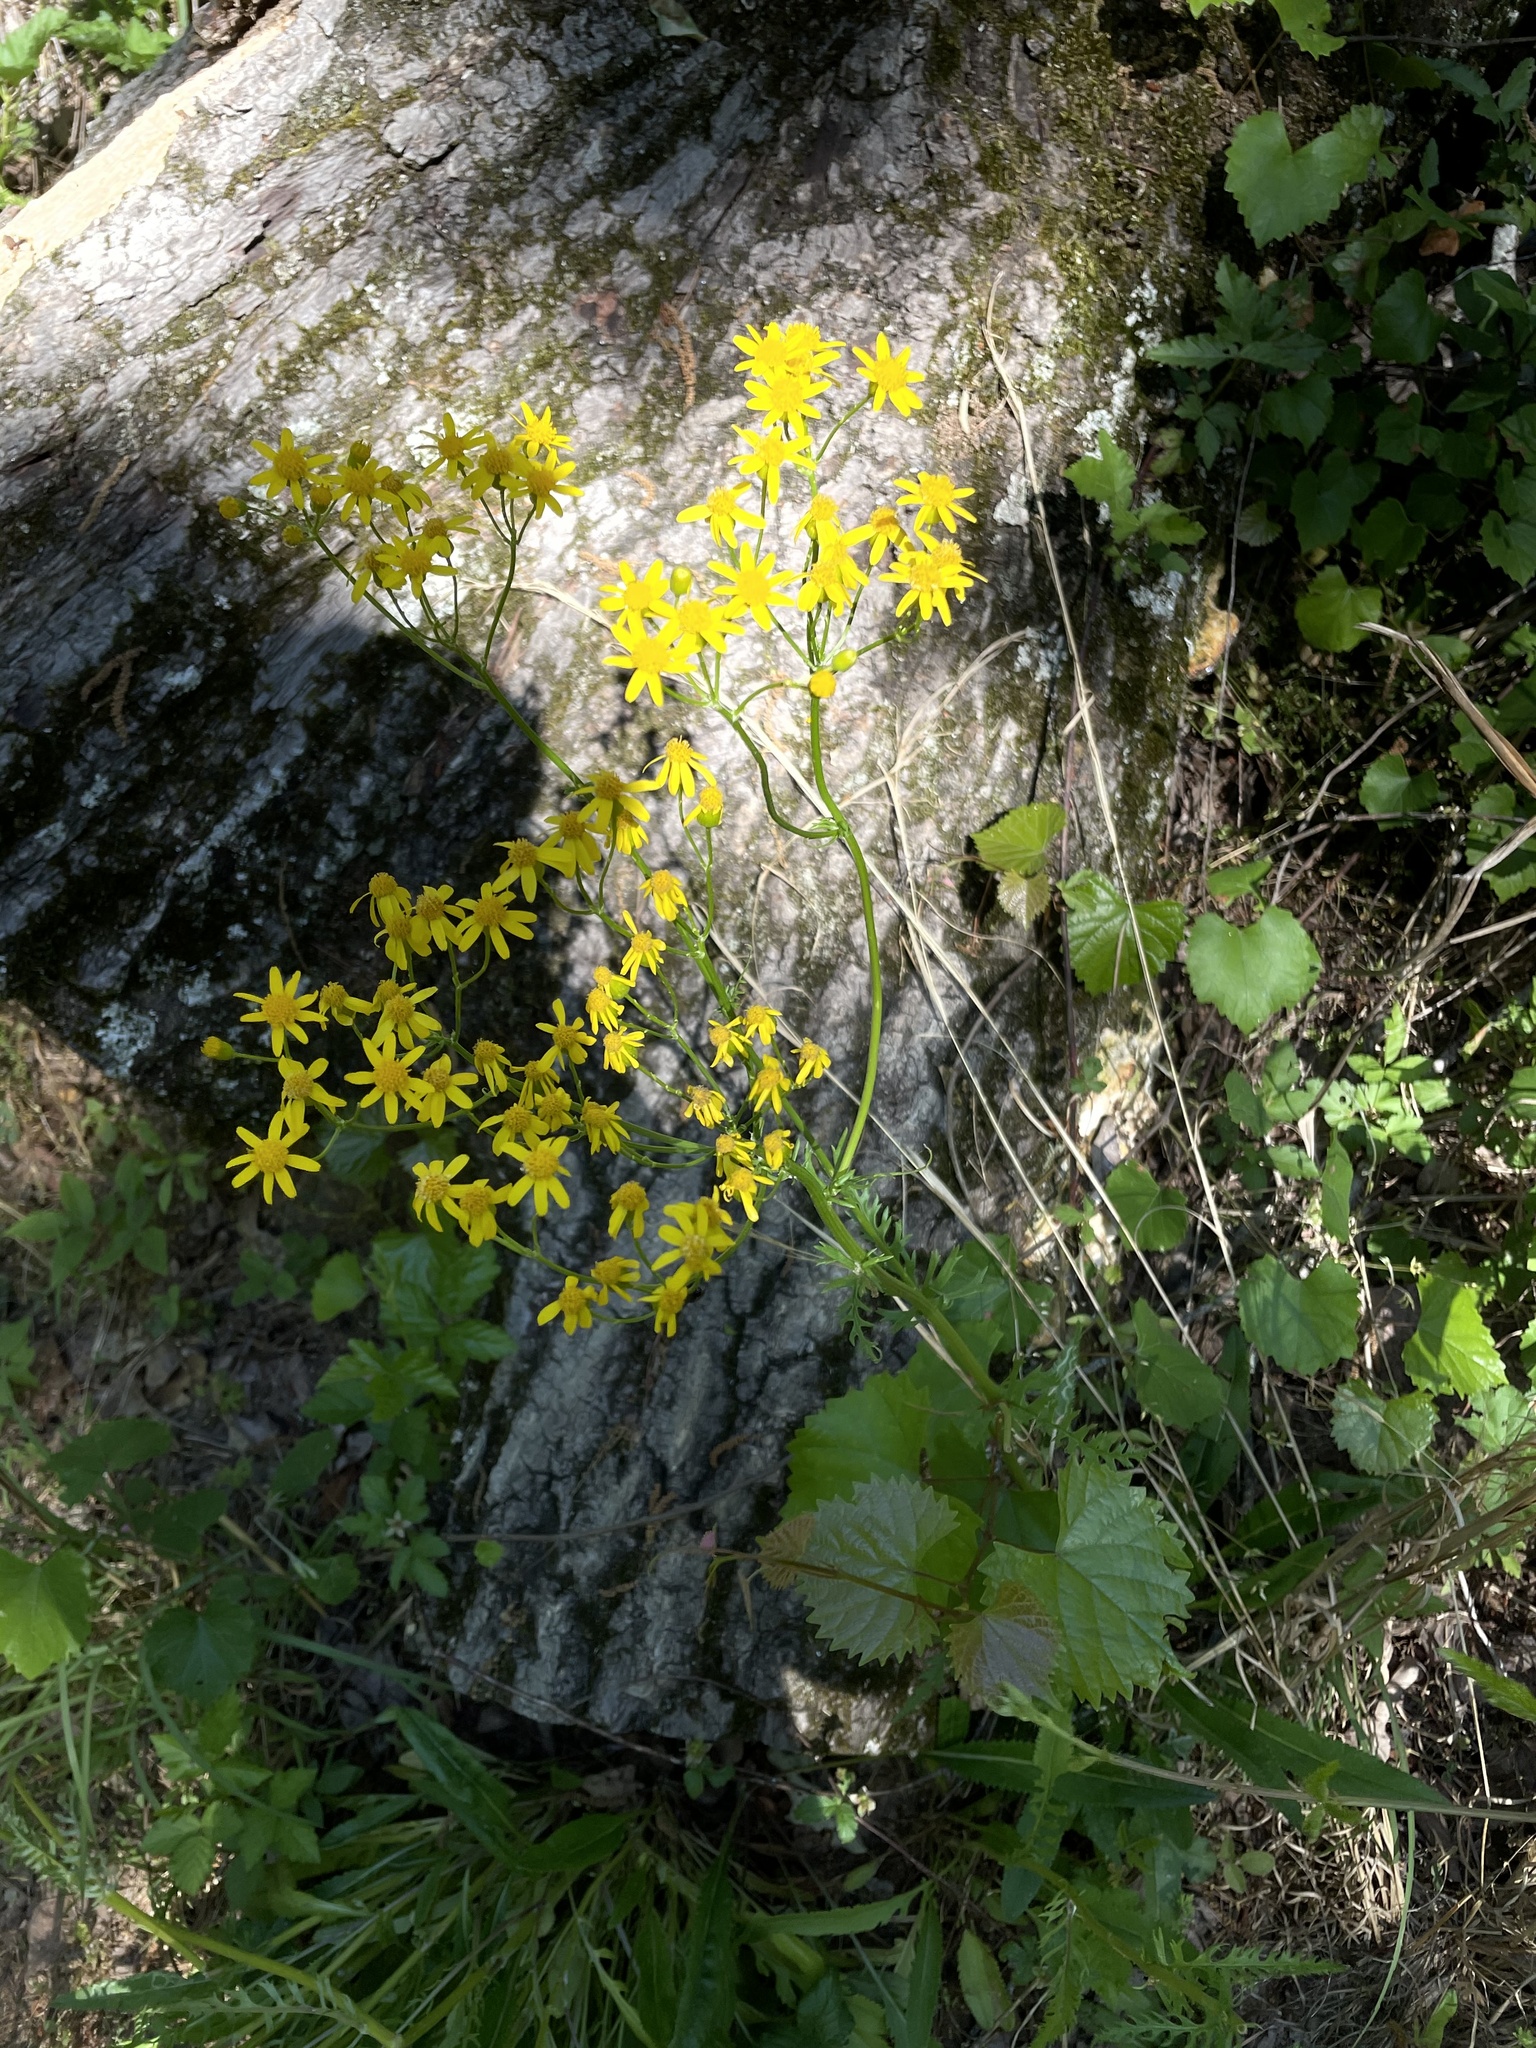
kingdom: Plantae
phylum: Tracheophyta
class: Magnoliopsida
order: Asterales
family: Asteraceae
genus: Packera
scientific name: Packera anonyma
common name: Small ragwort
